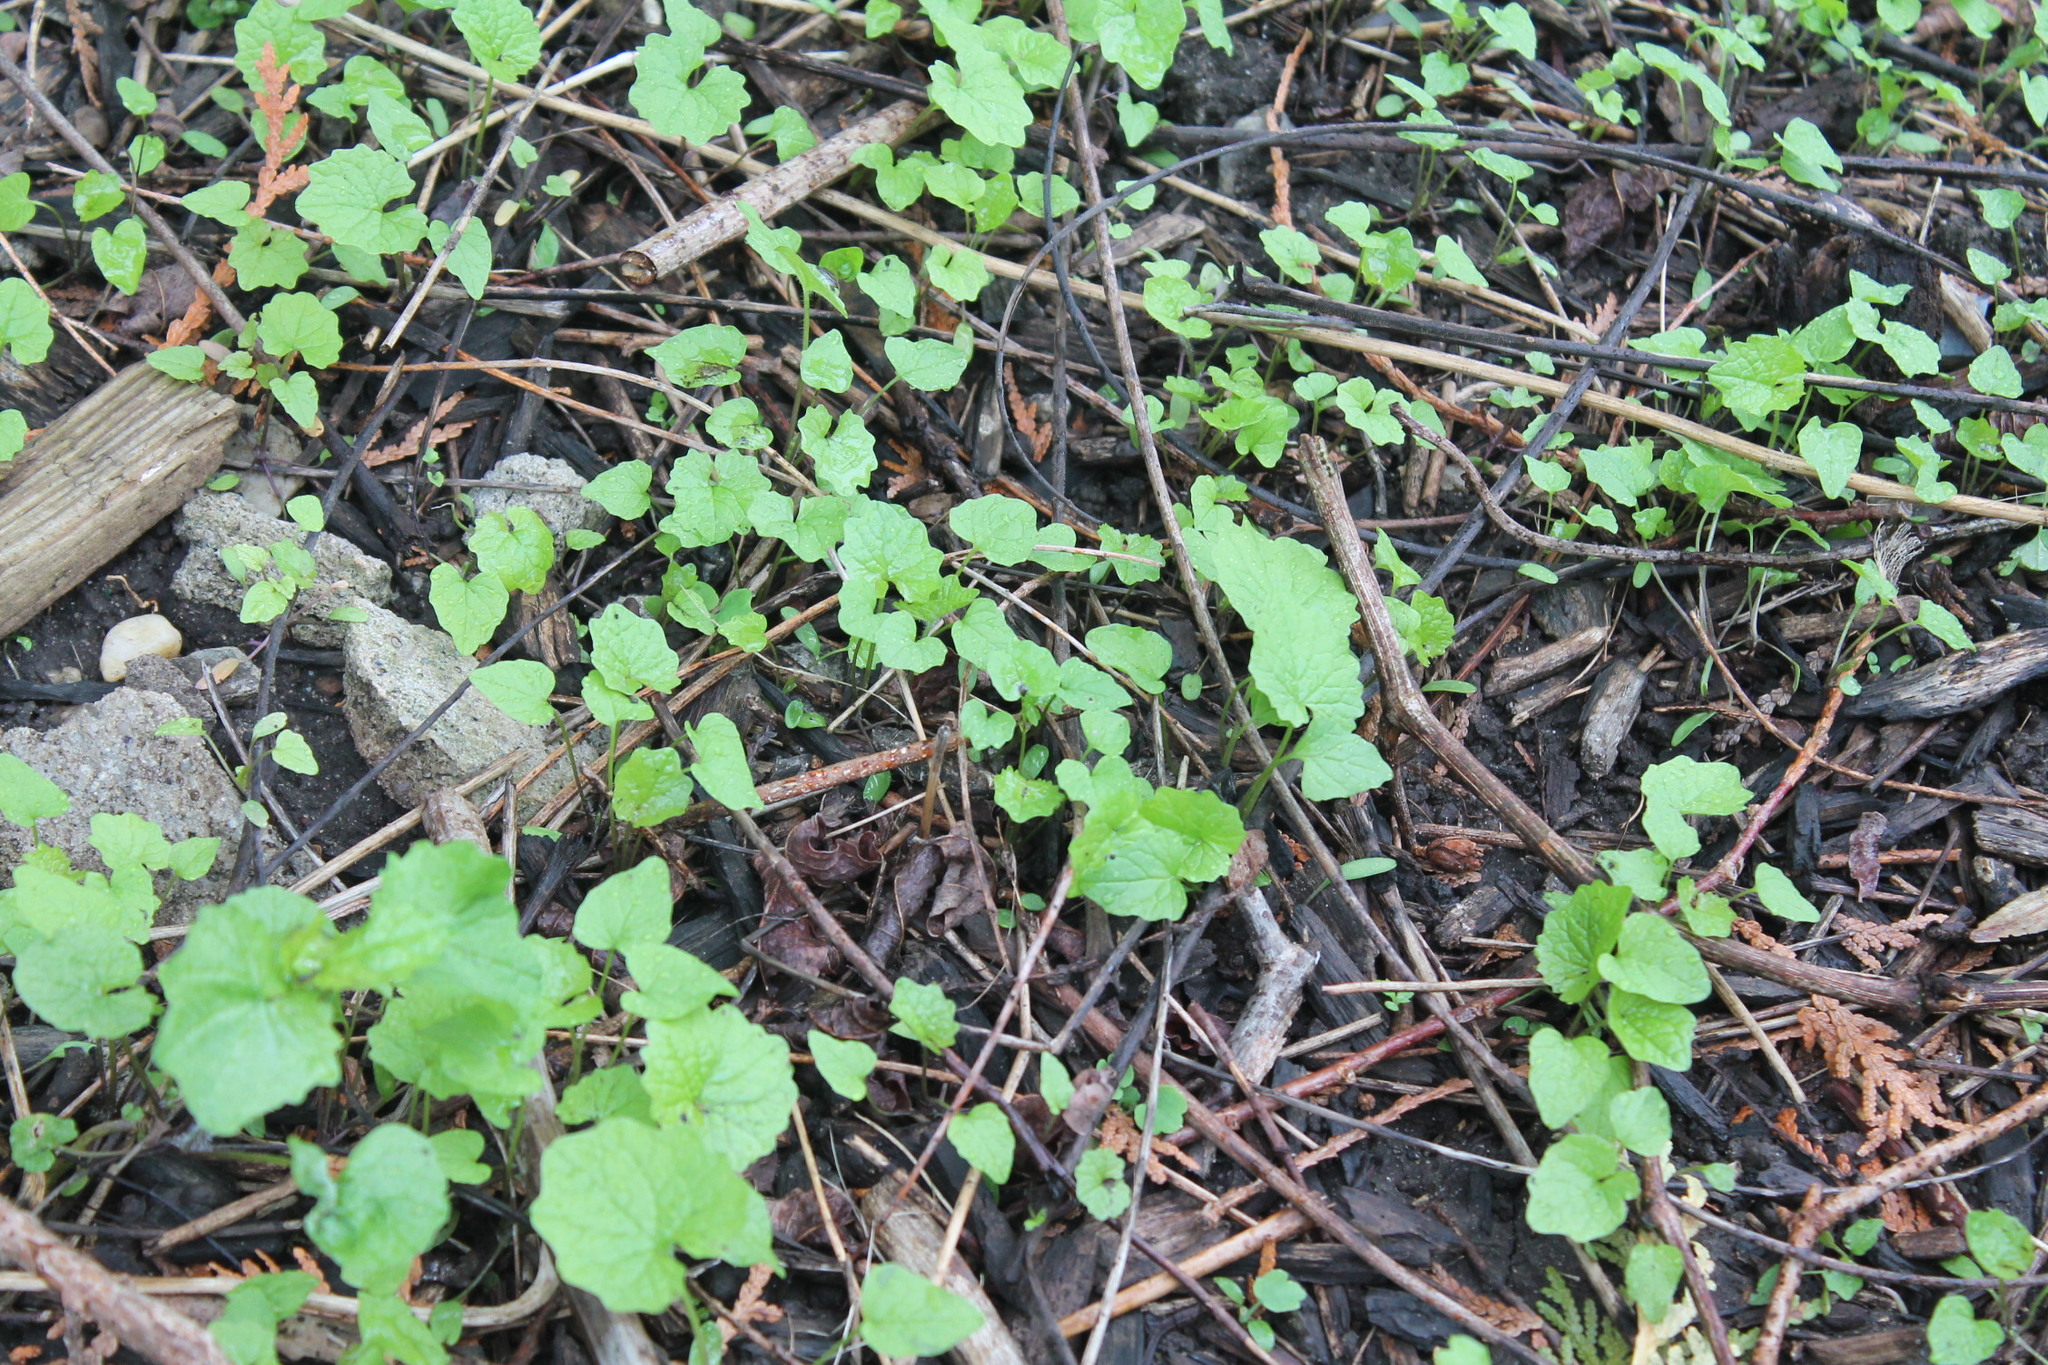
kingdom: Plantae
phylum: Tracheophyta
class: Magnoliopsida
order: Brassicales
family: Brassicaceae
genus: Alliaria
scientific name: Alliaria petiolata
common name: Garlic mustard
